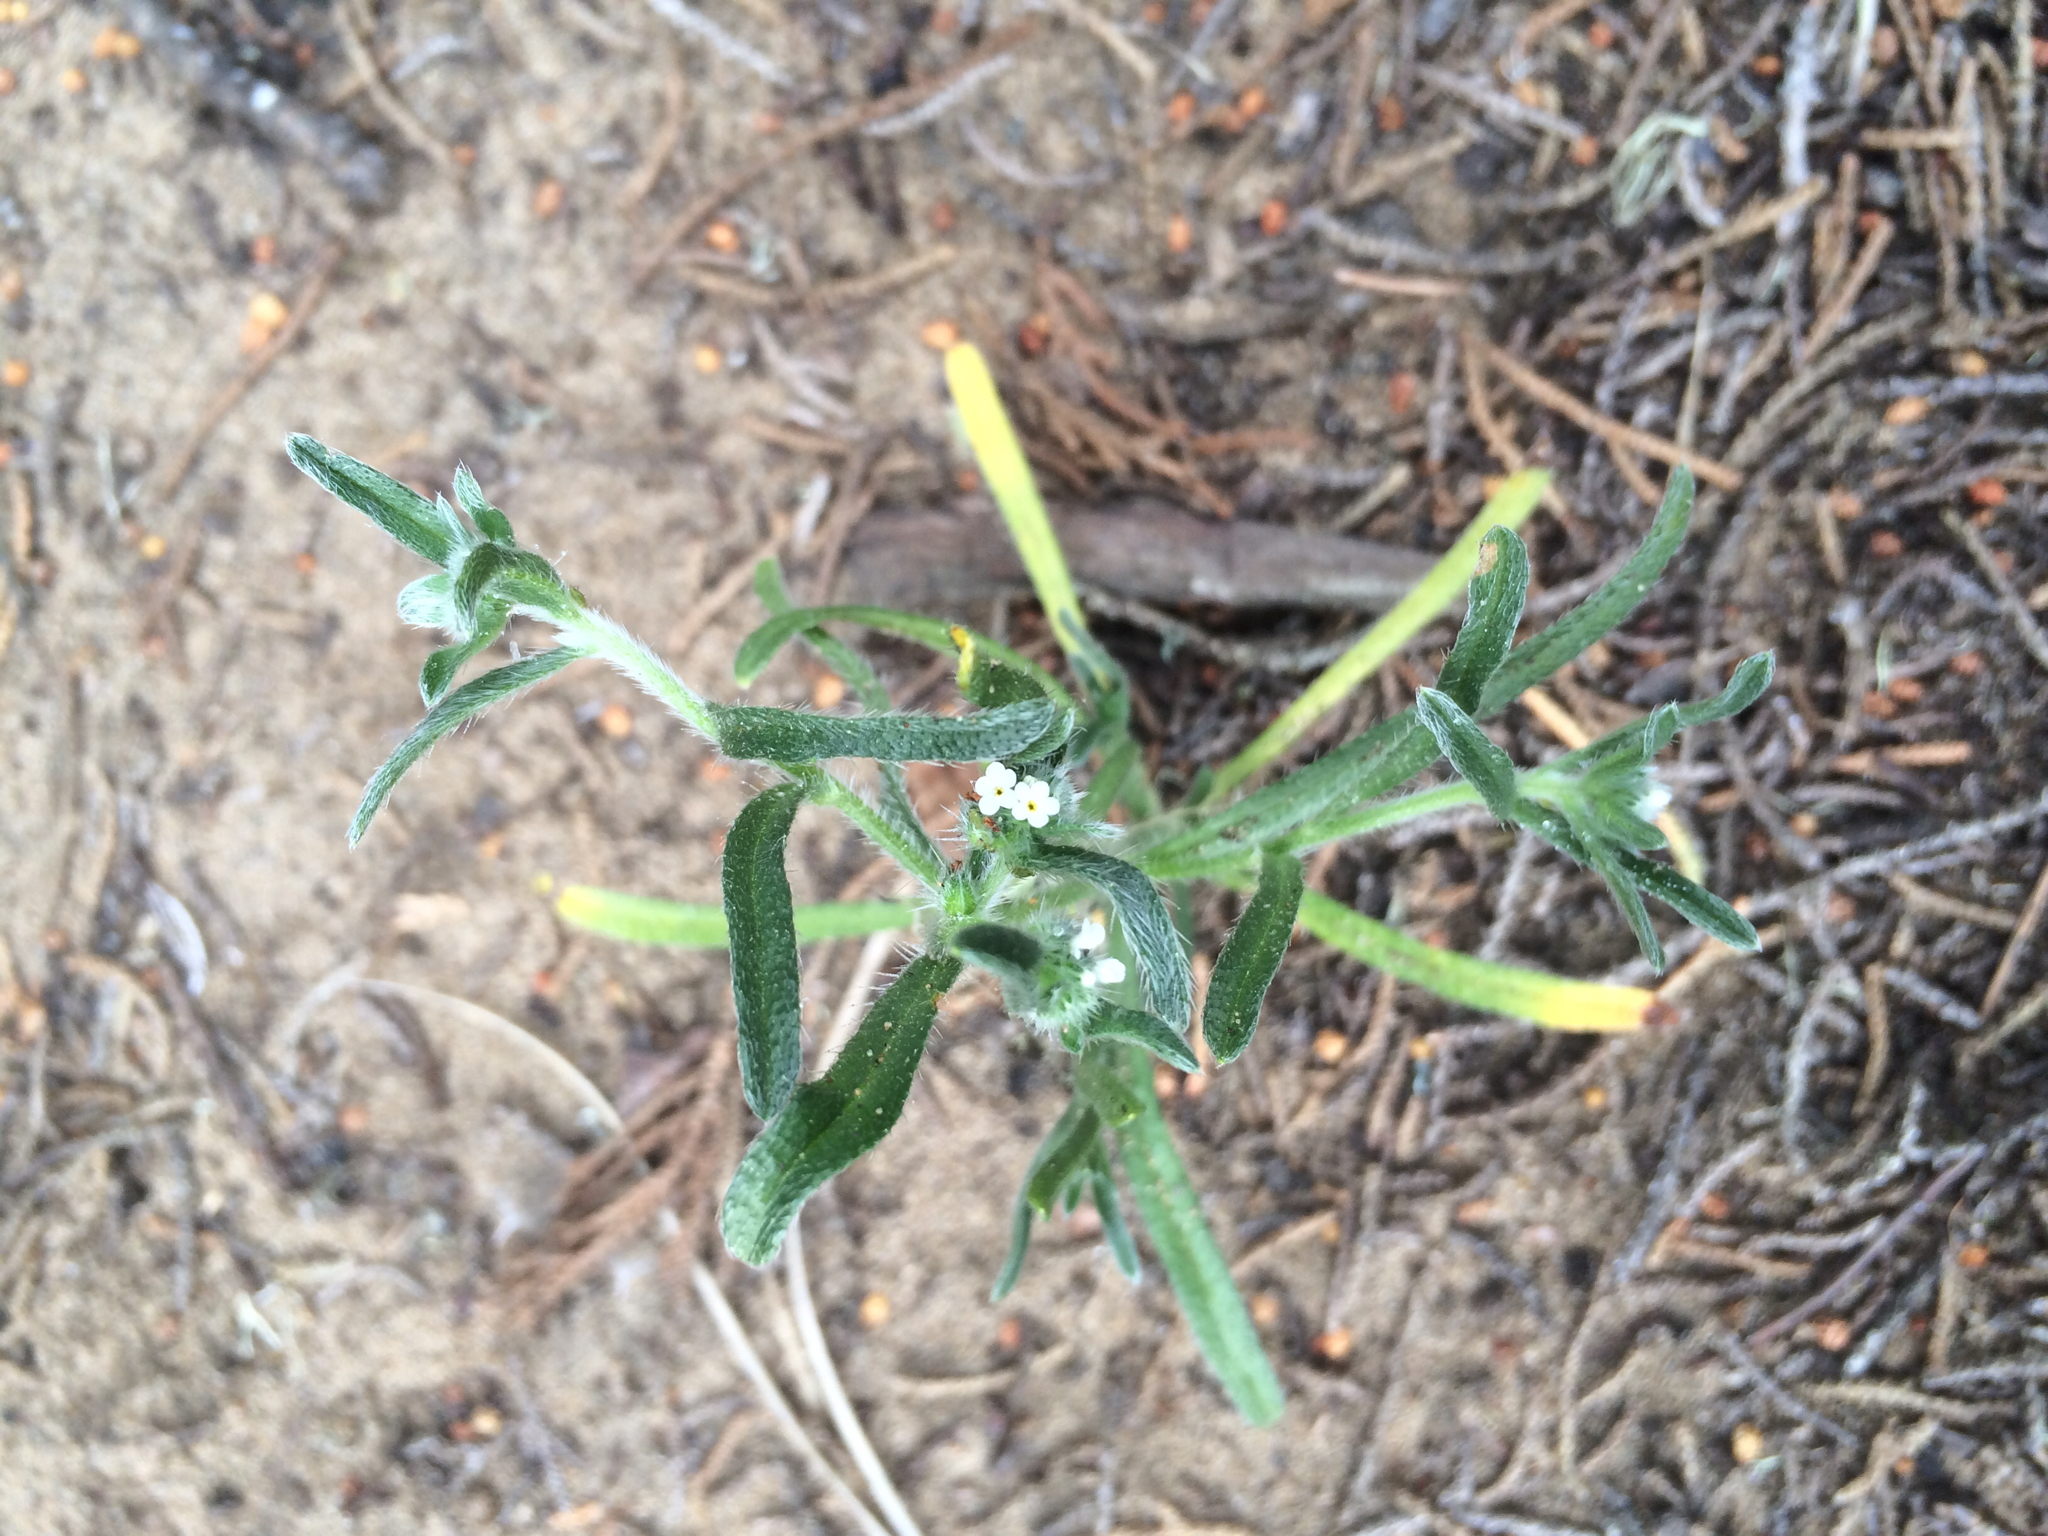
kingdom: Plantae
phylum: Tracheophyta
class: Magnoliopsida
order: Boraginales
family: Boraginaceae
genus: Cryptantha
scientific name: Cryptantha leiocarpa
